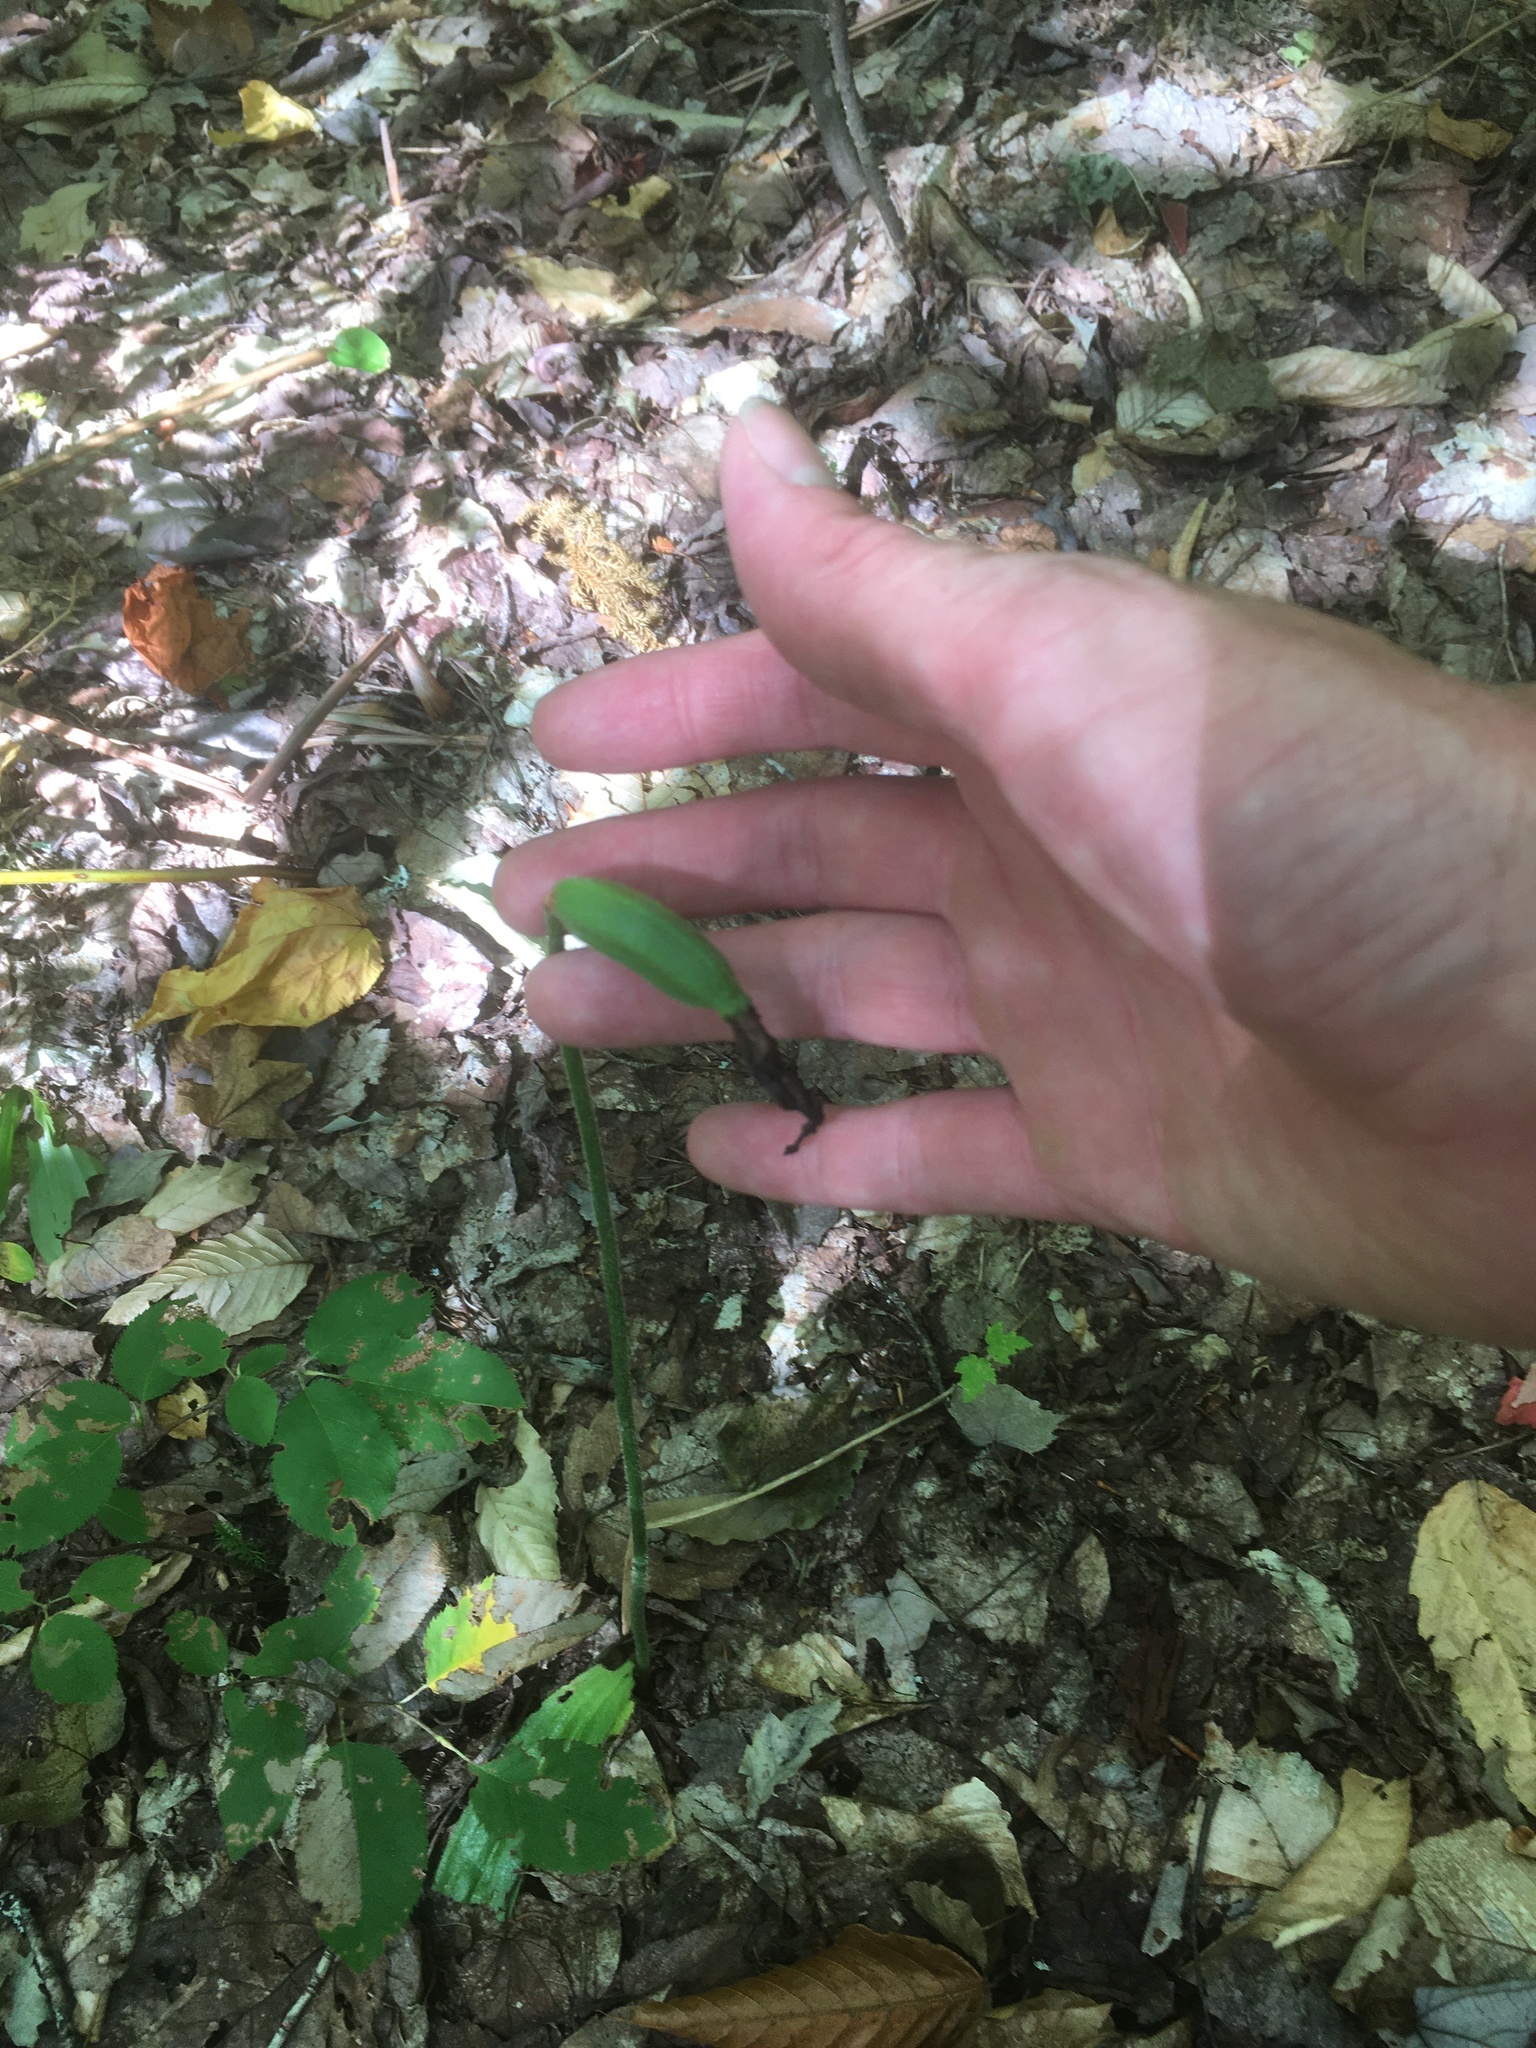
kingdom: Plantae
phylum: Tracheophyta
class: Liliopsida
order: Asparagales
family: Orchidaceae
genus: Cypripedium
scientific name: Cypripedium acaule
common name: Pink lady's-slipper
